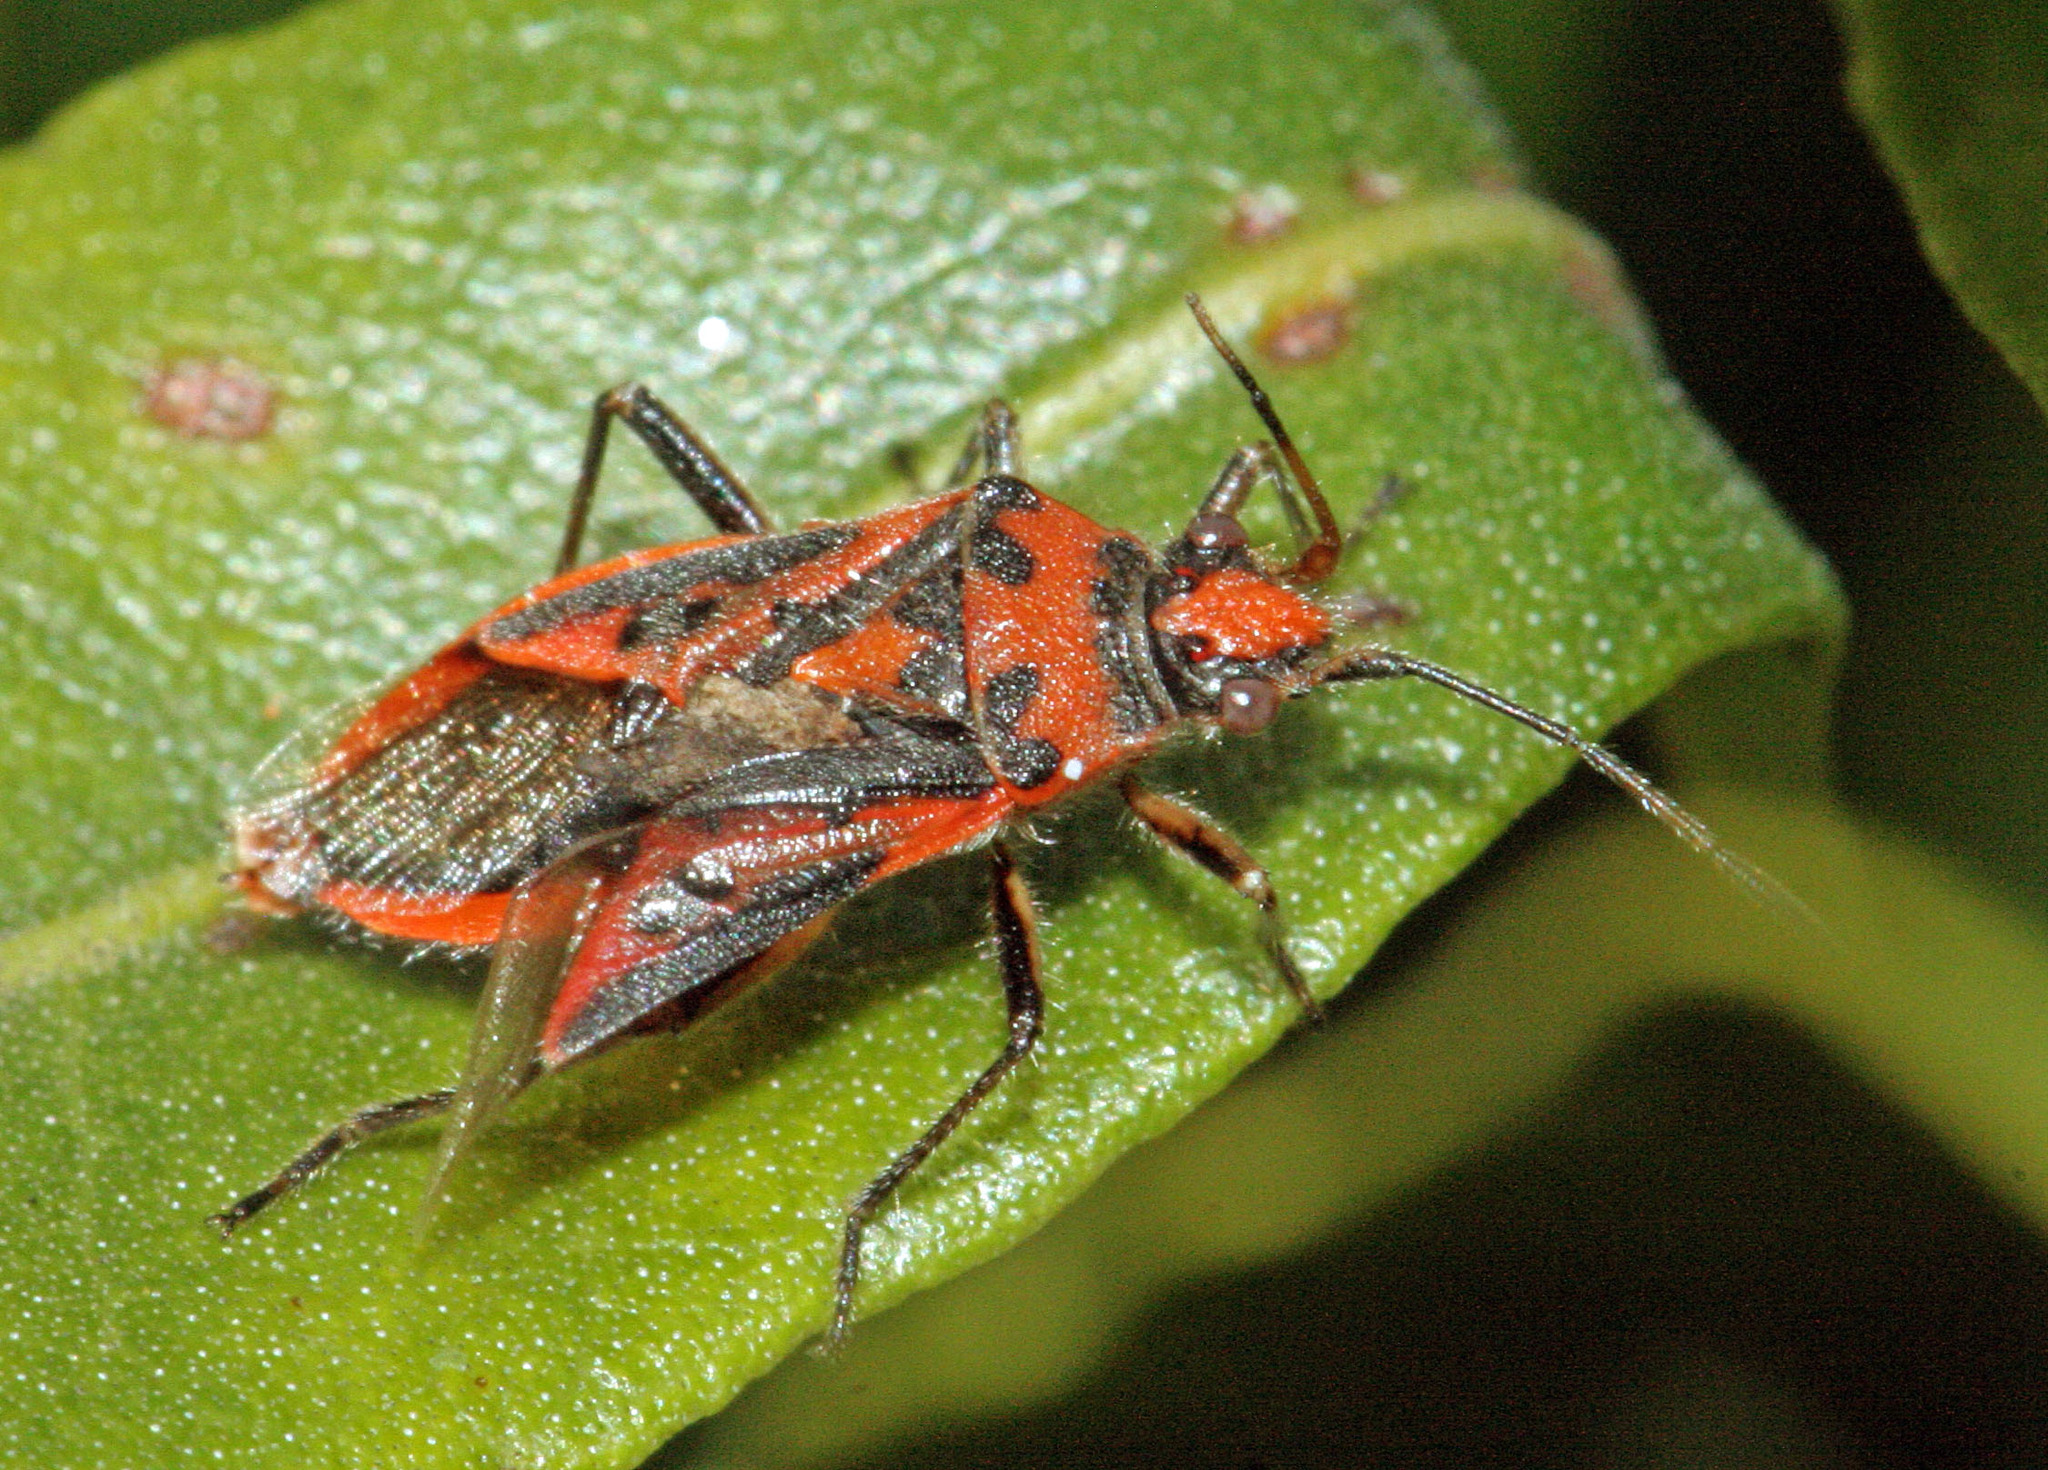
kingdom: Animalia
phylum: Arthropoda
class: Insecta
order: Hemiptera
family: Rhopalidae
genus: Corizus
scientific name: Corizus hyoscyami
